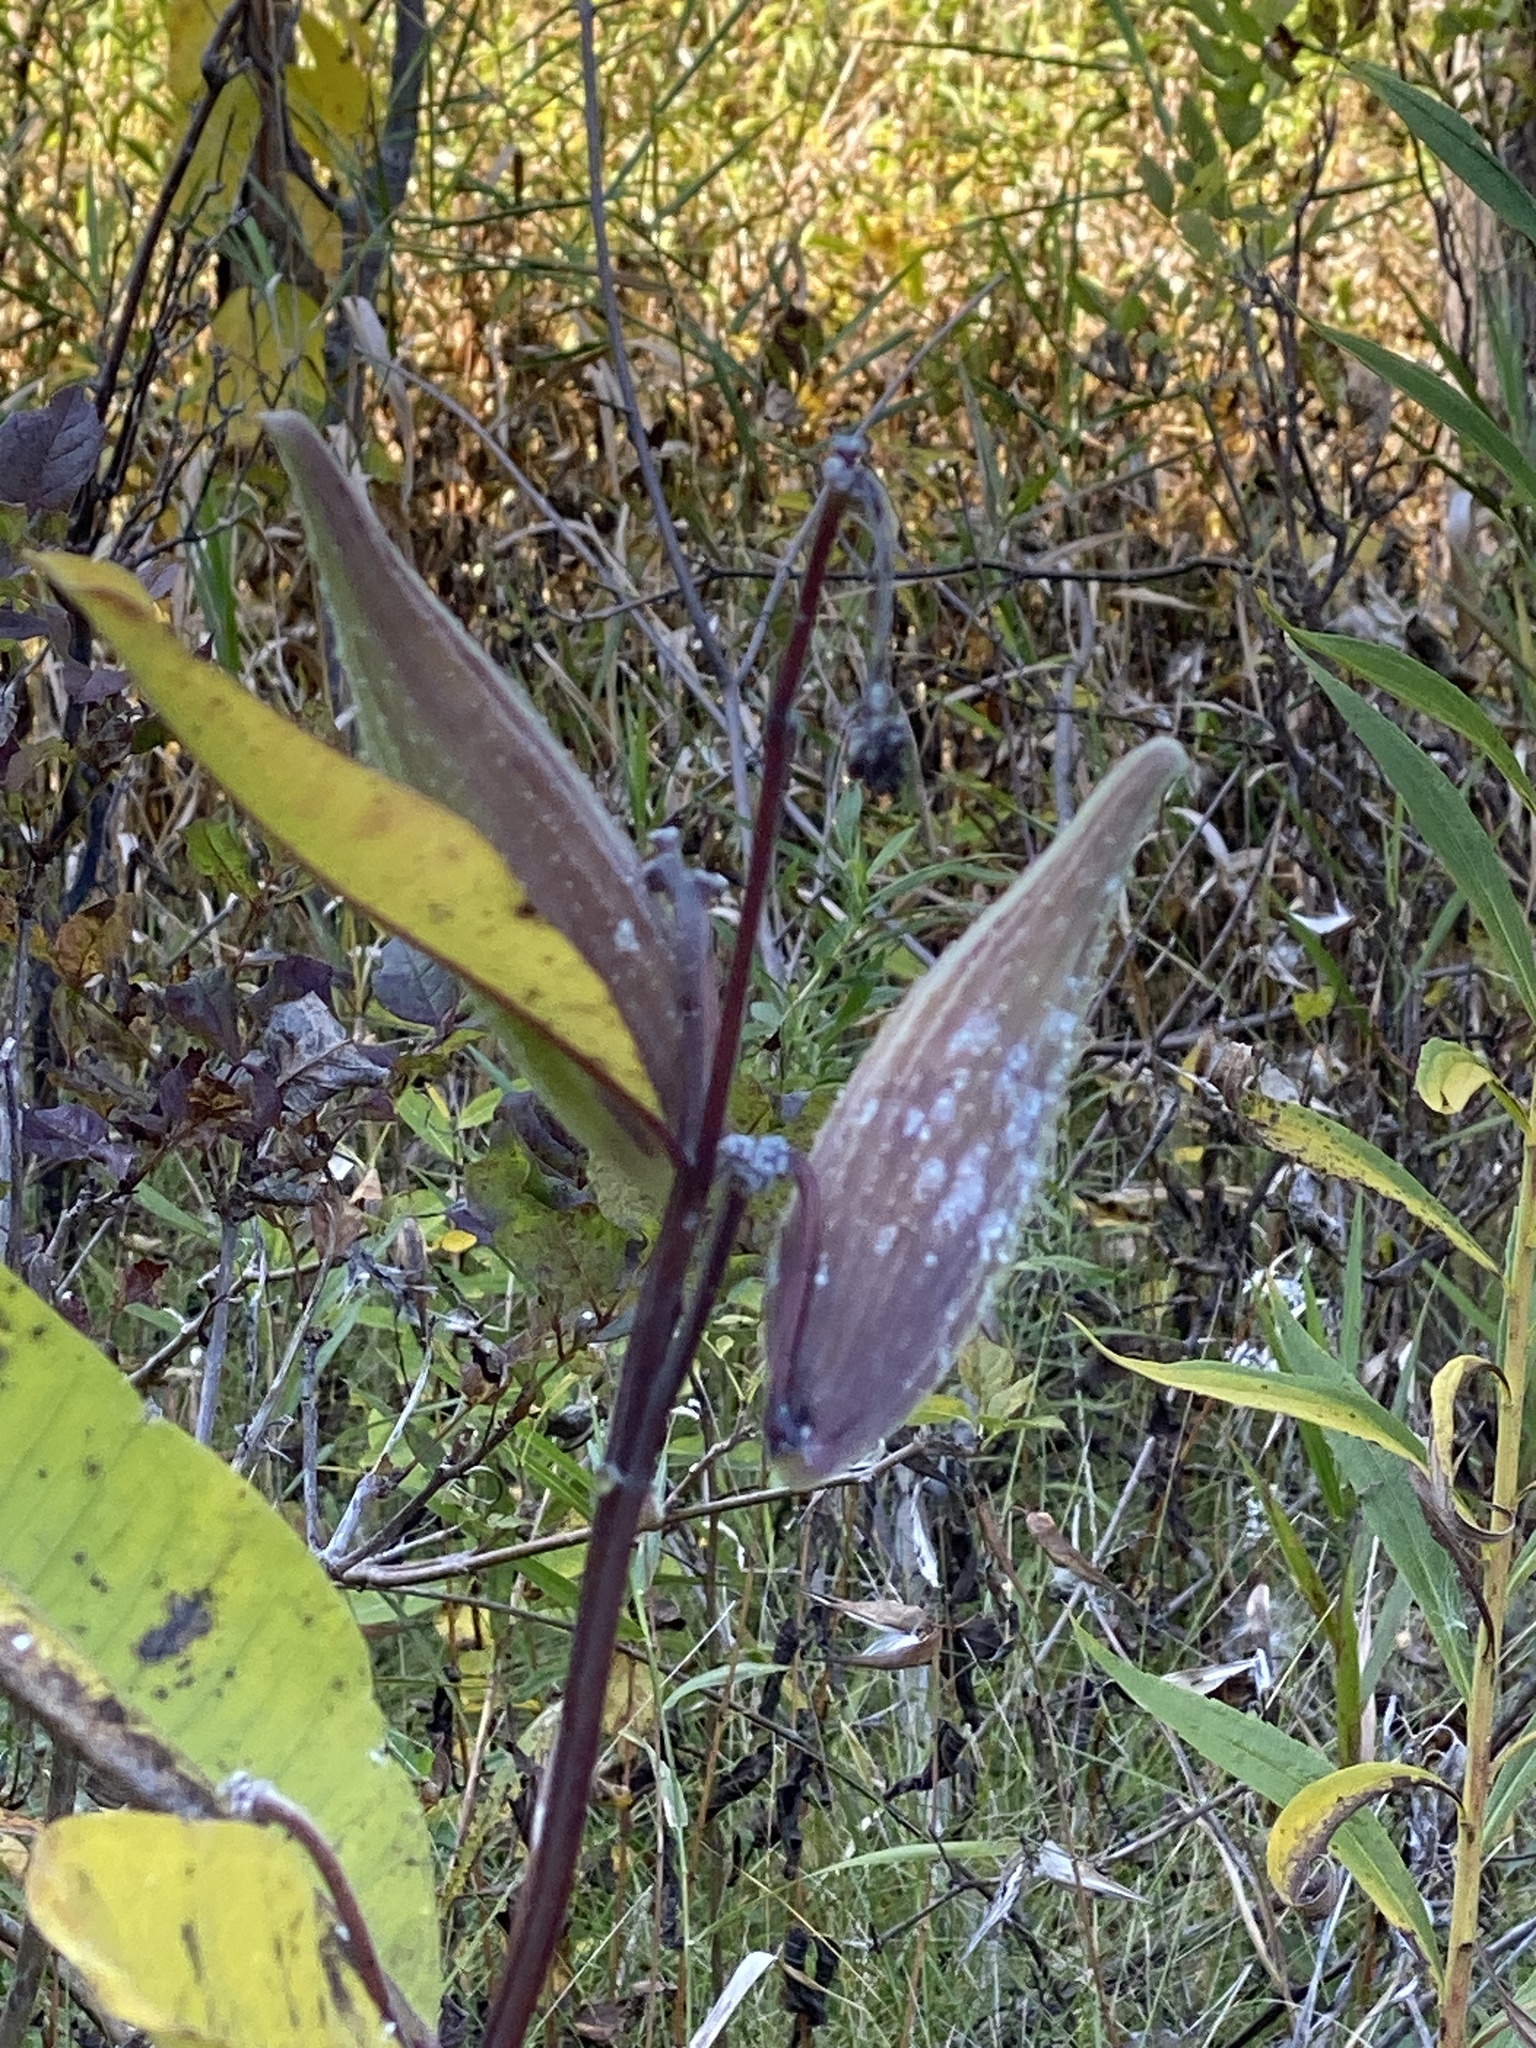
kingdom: Plantae
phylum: Tracheophyta
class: Magnoliopsida
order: Gentianales
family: Apocynaceae
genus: Asclepias
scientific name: Asclepias syriaca
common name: Common milkweed
